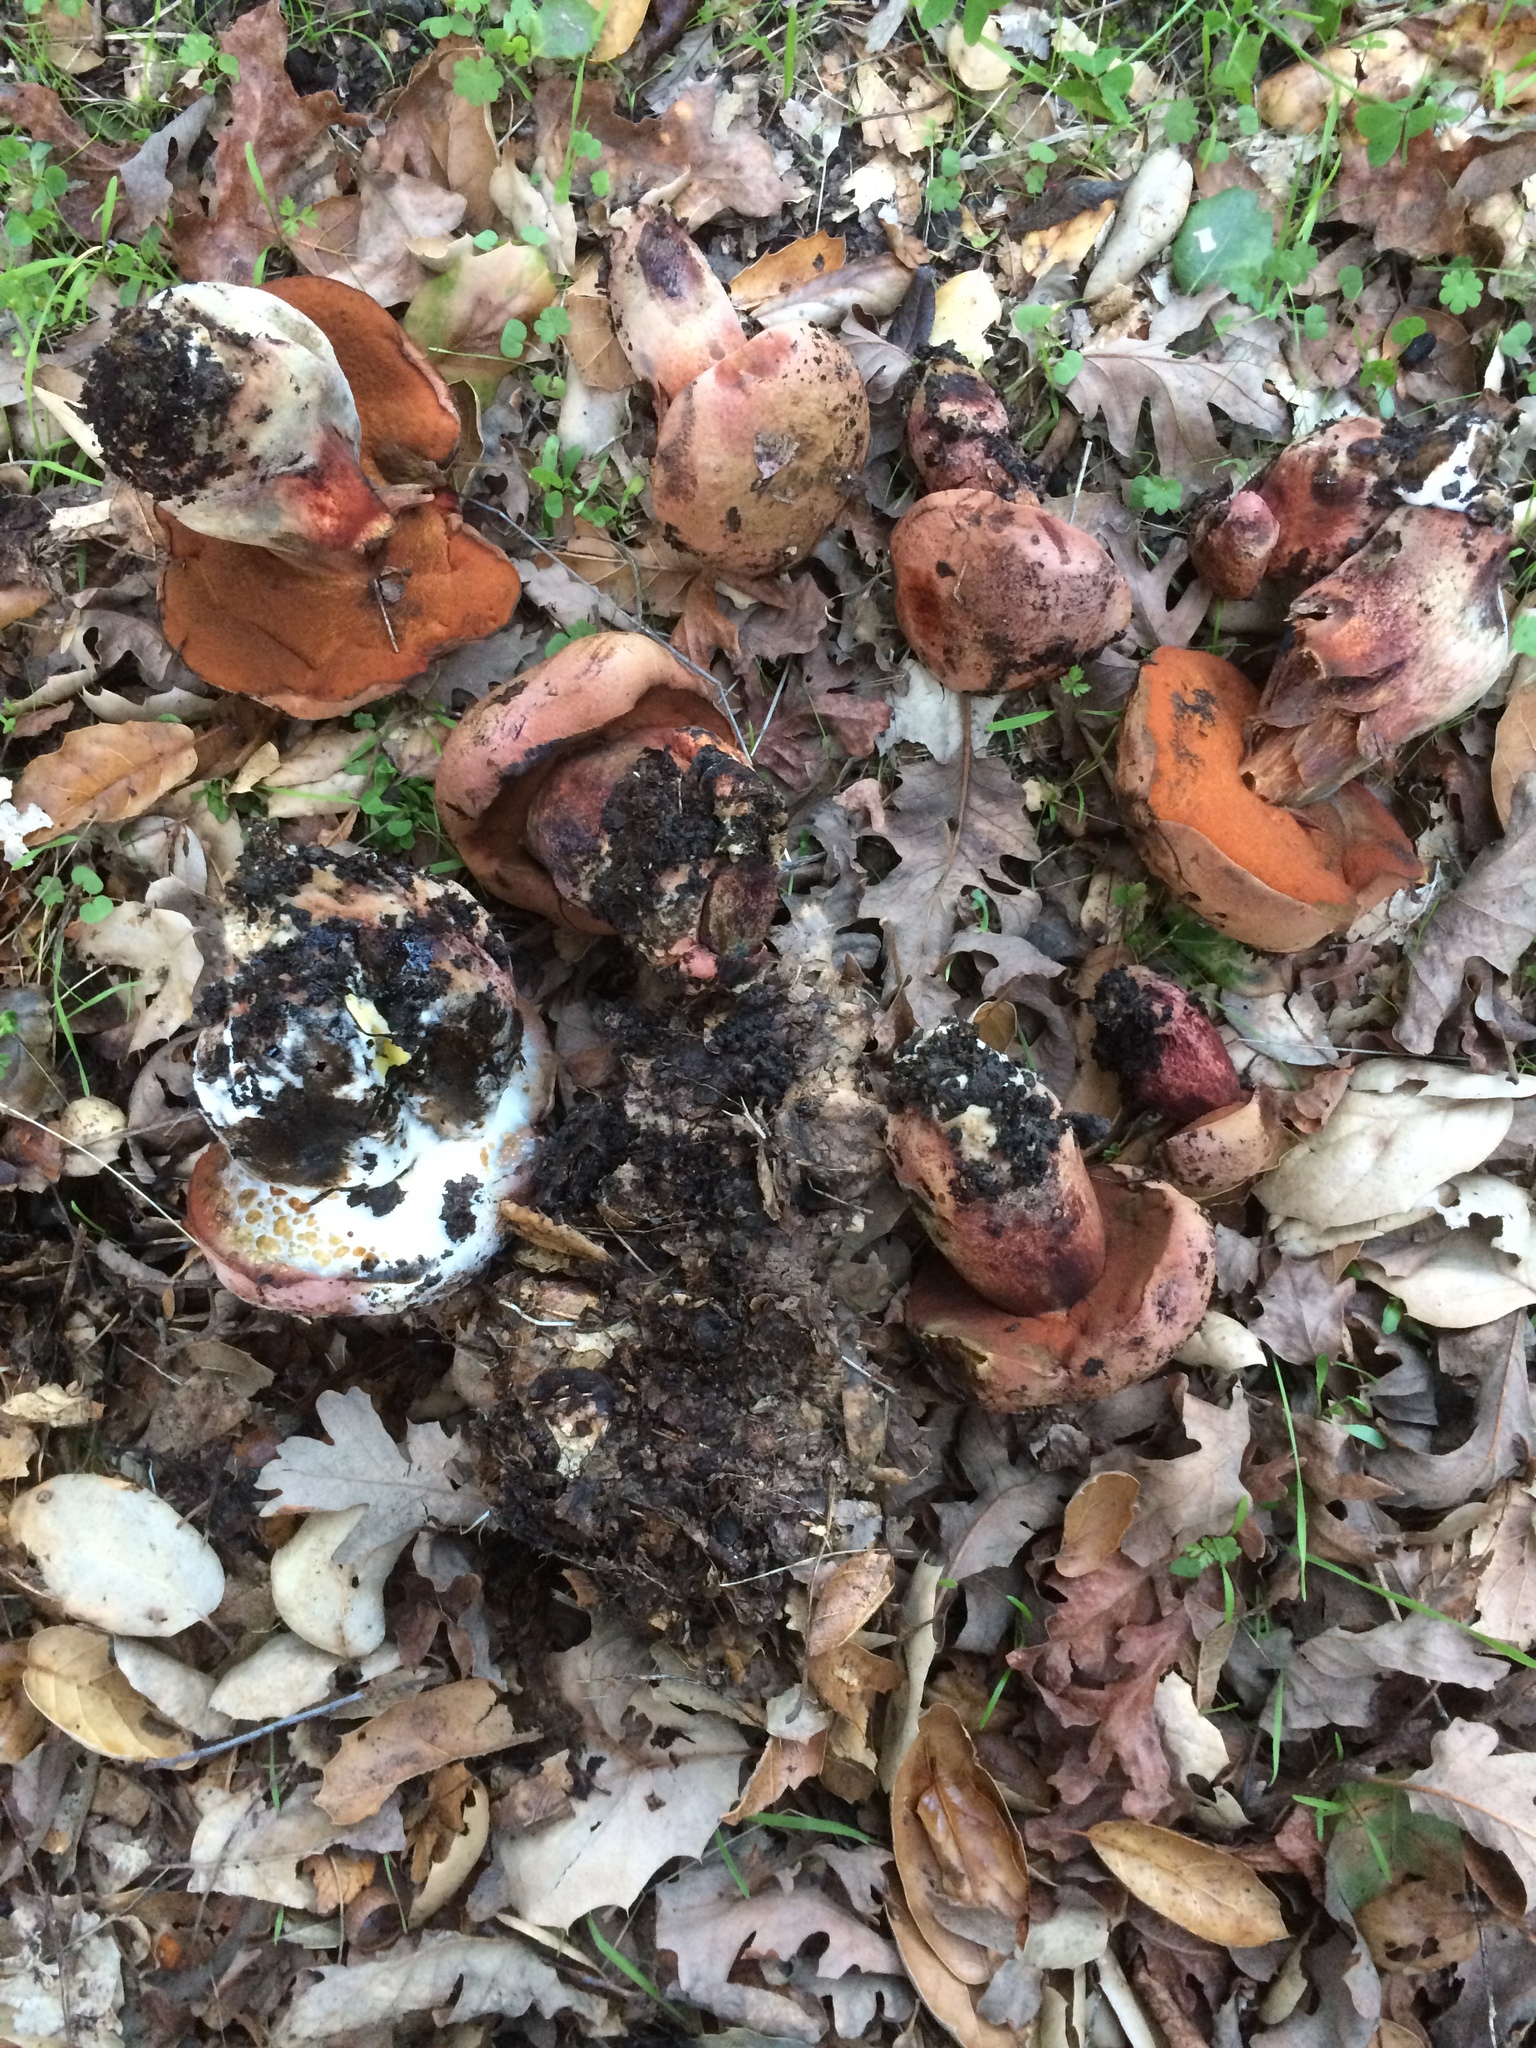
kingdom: Fungi
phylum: Basidiomycota
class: Agaricomycetes
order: Boletales
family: Boletaceae
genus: Suillellus
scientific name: Suillellus amygdalinus
